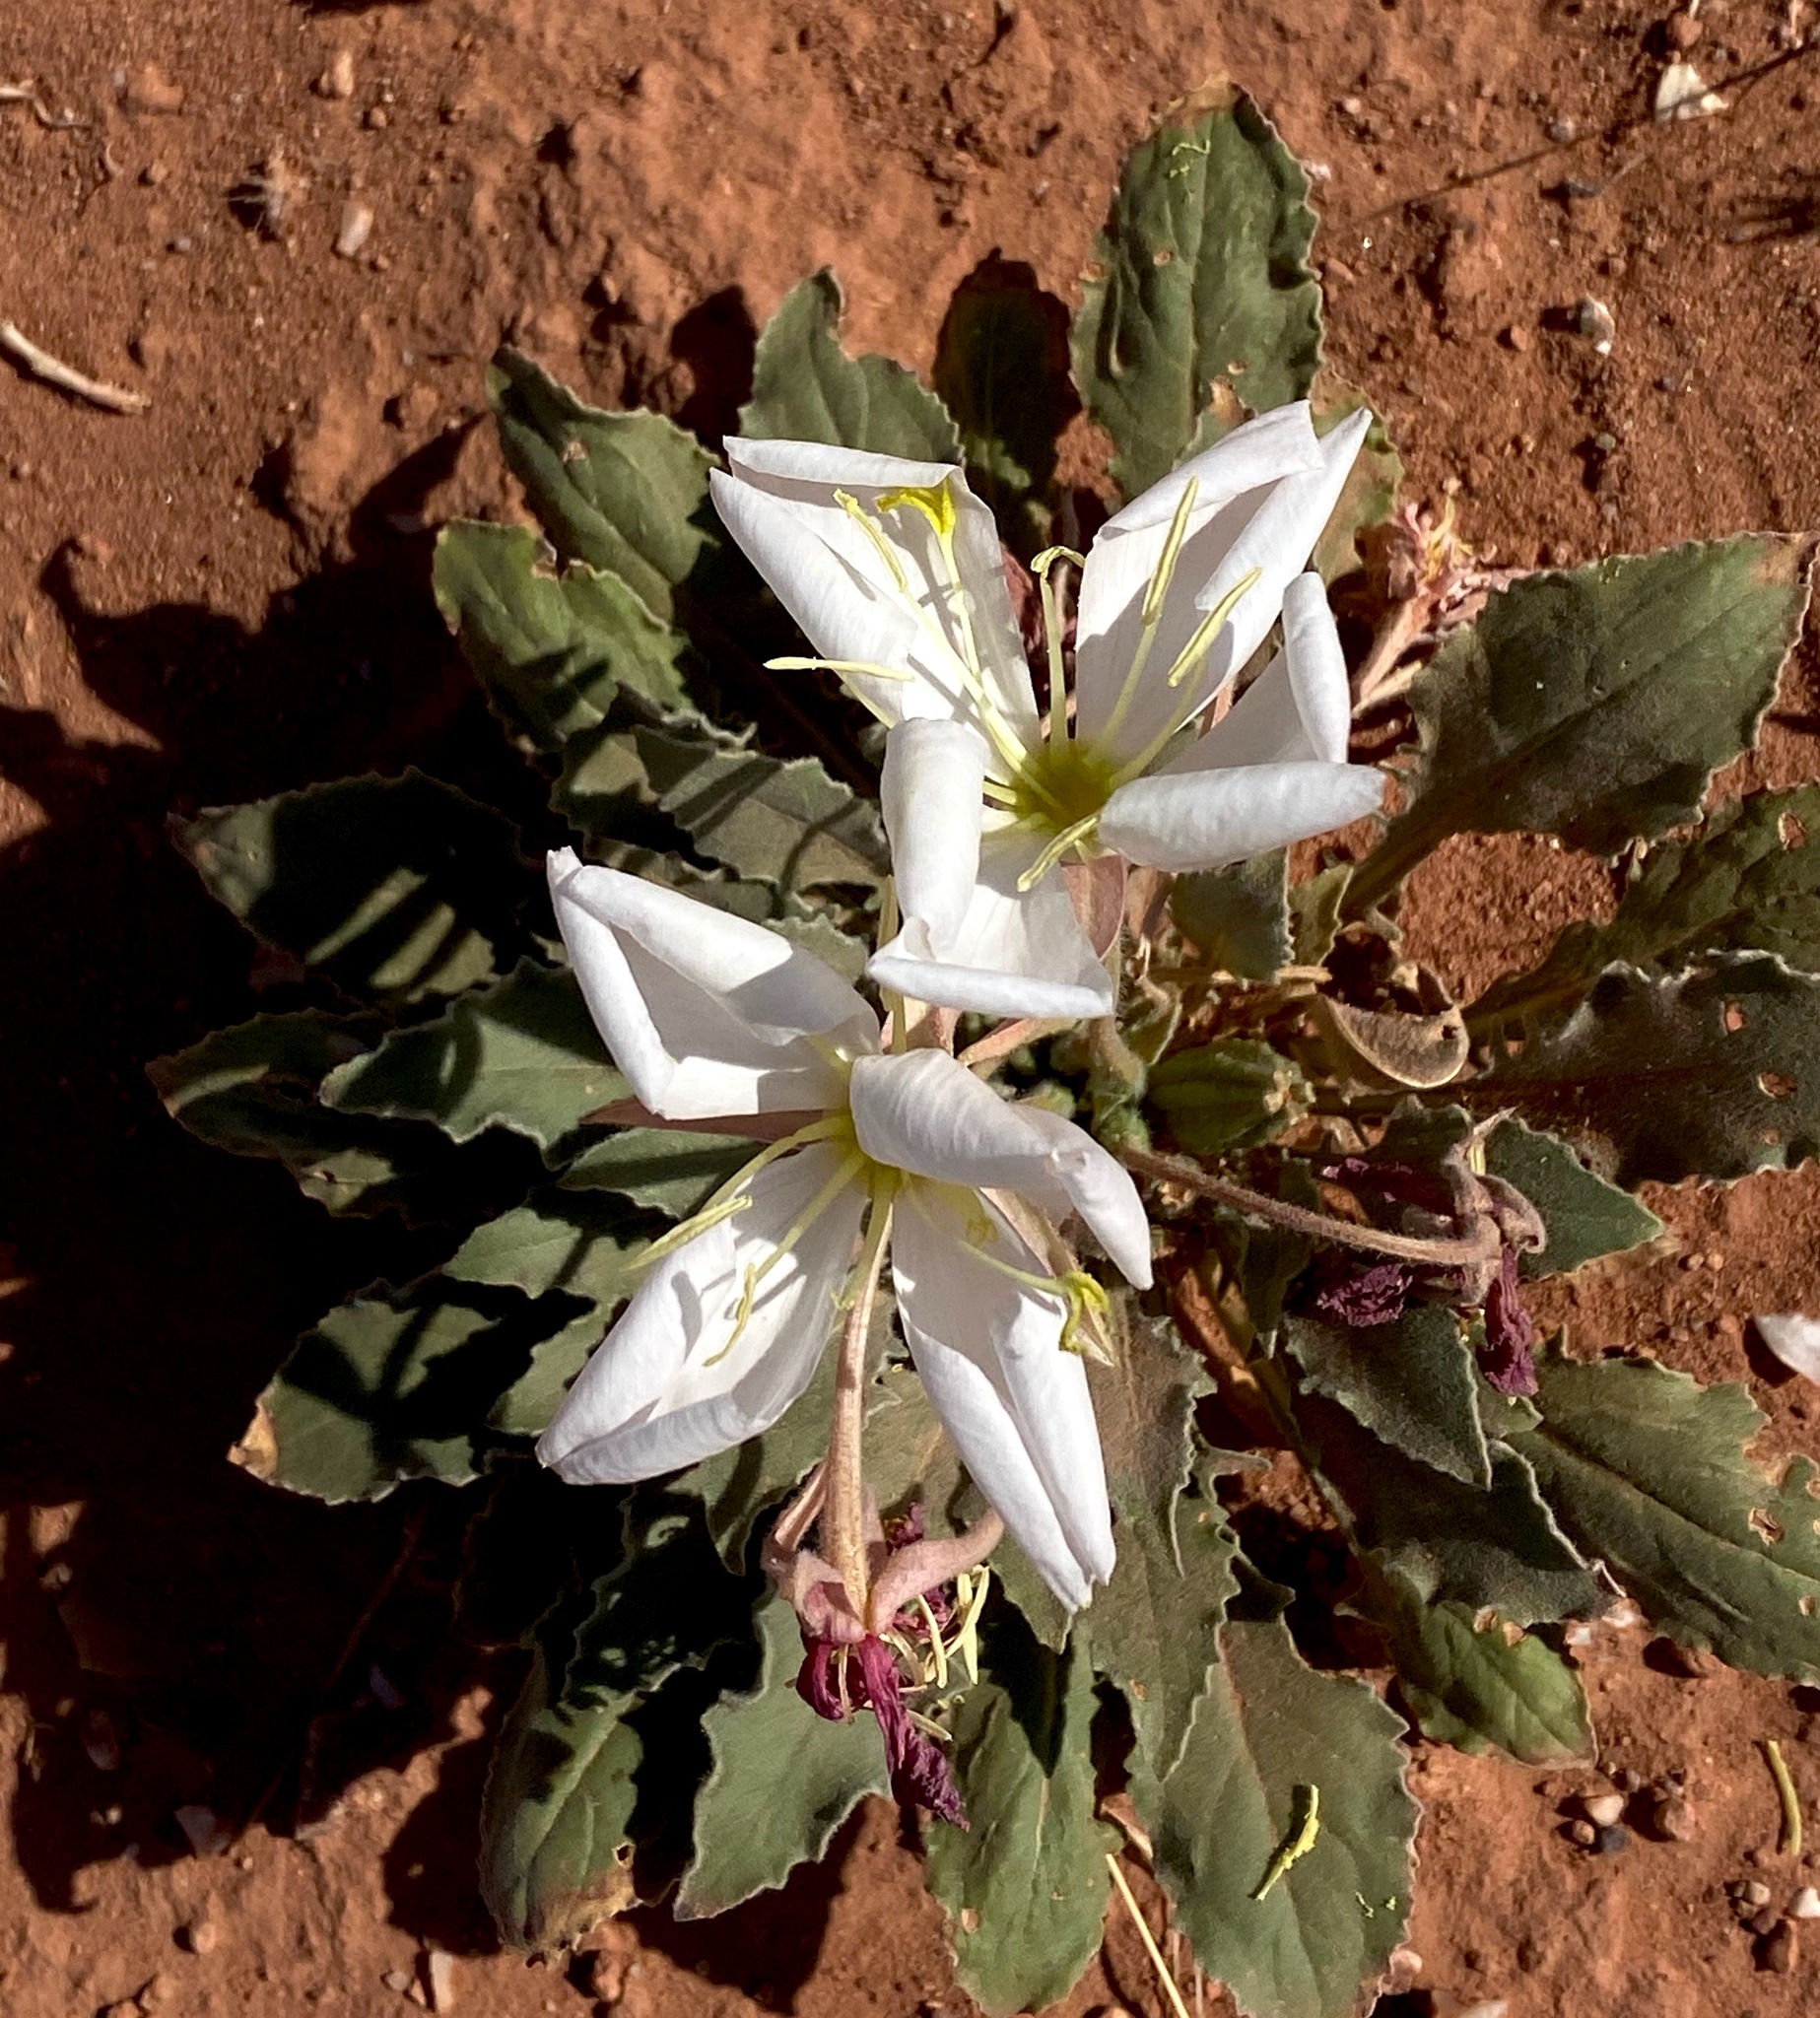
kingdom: Plantae
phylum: Tracheophyta
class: Magnoliopsida
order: Myrtales
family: Onagraceae
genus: Oenothera
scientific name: Oenothera cespitosa
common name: Tufted evening-primrose
